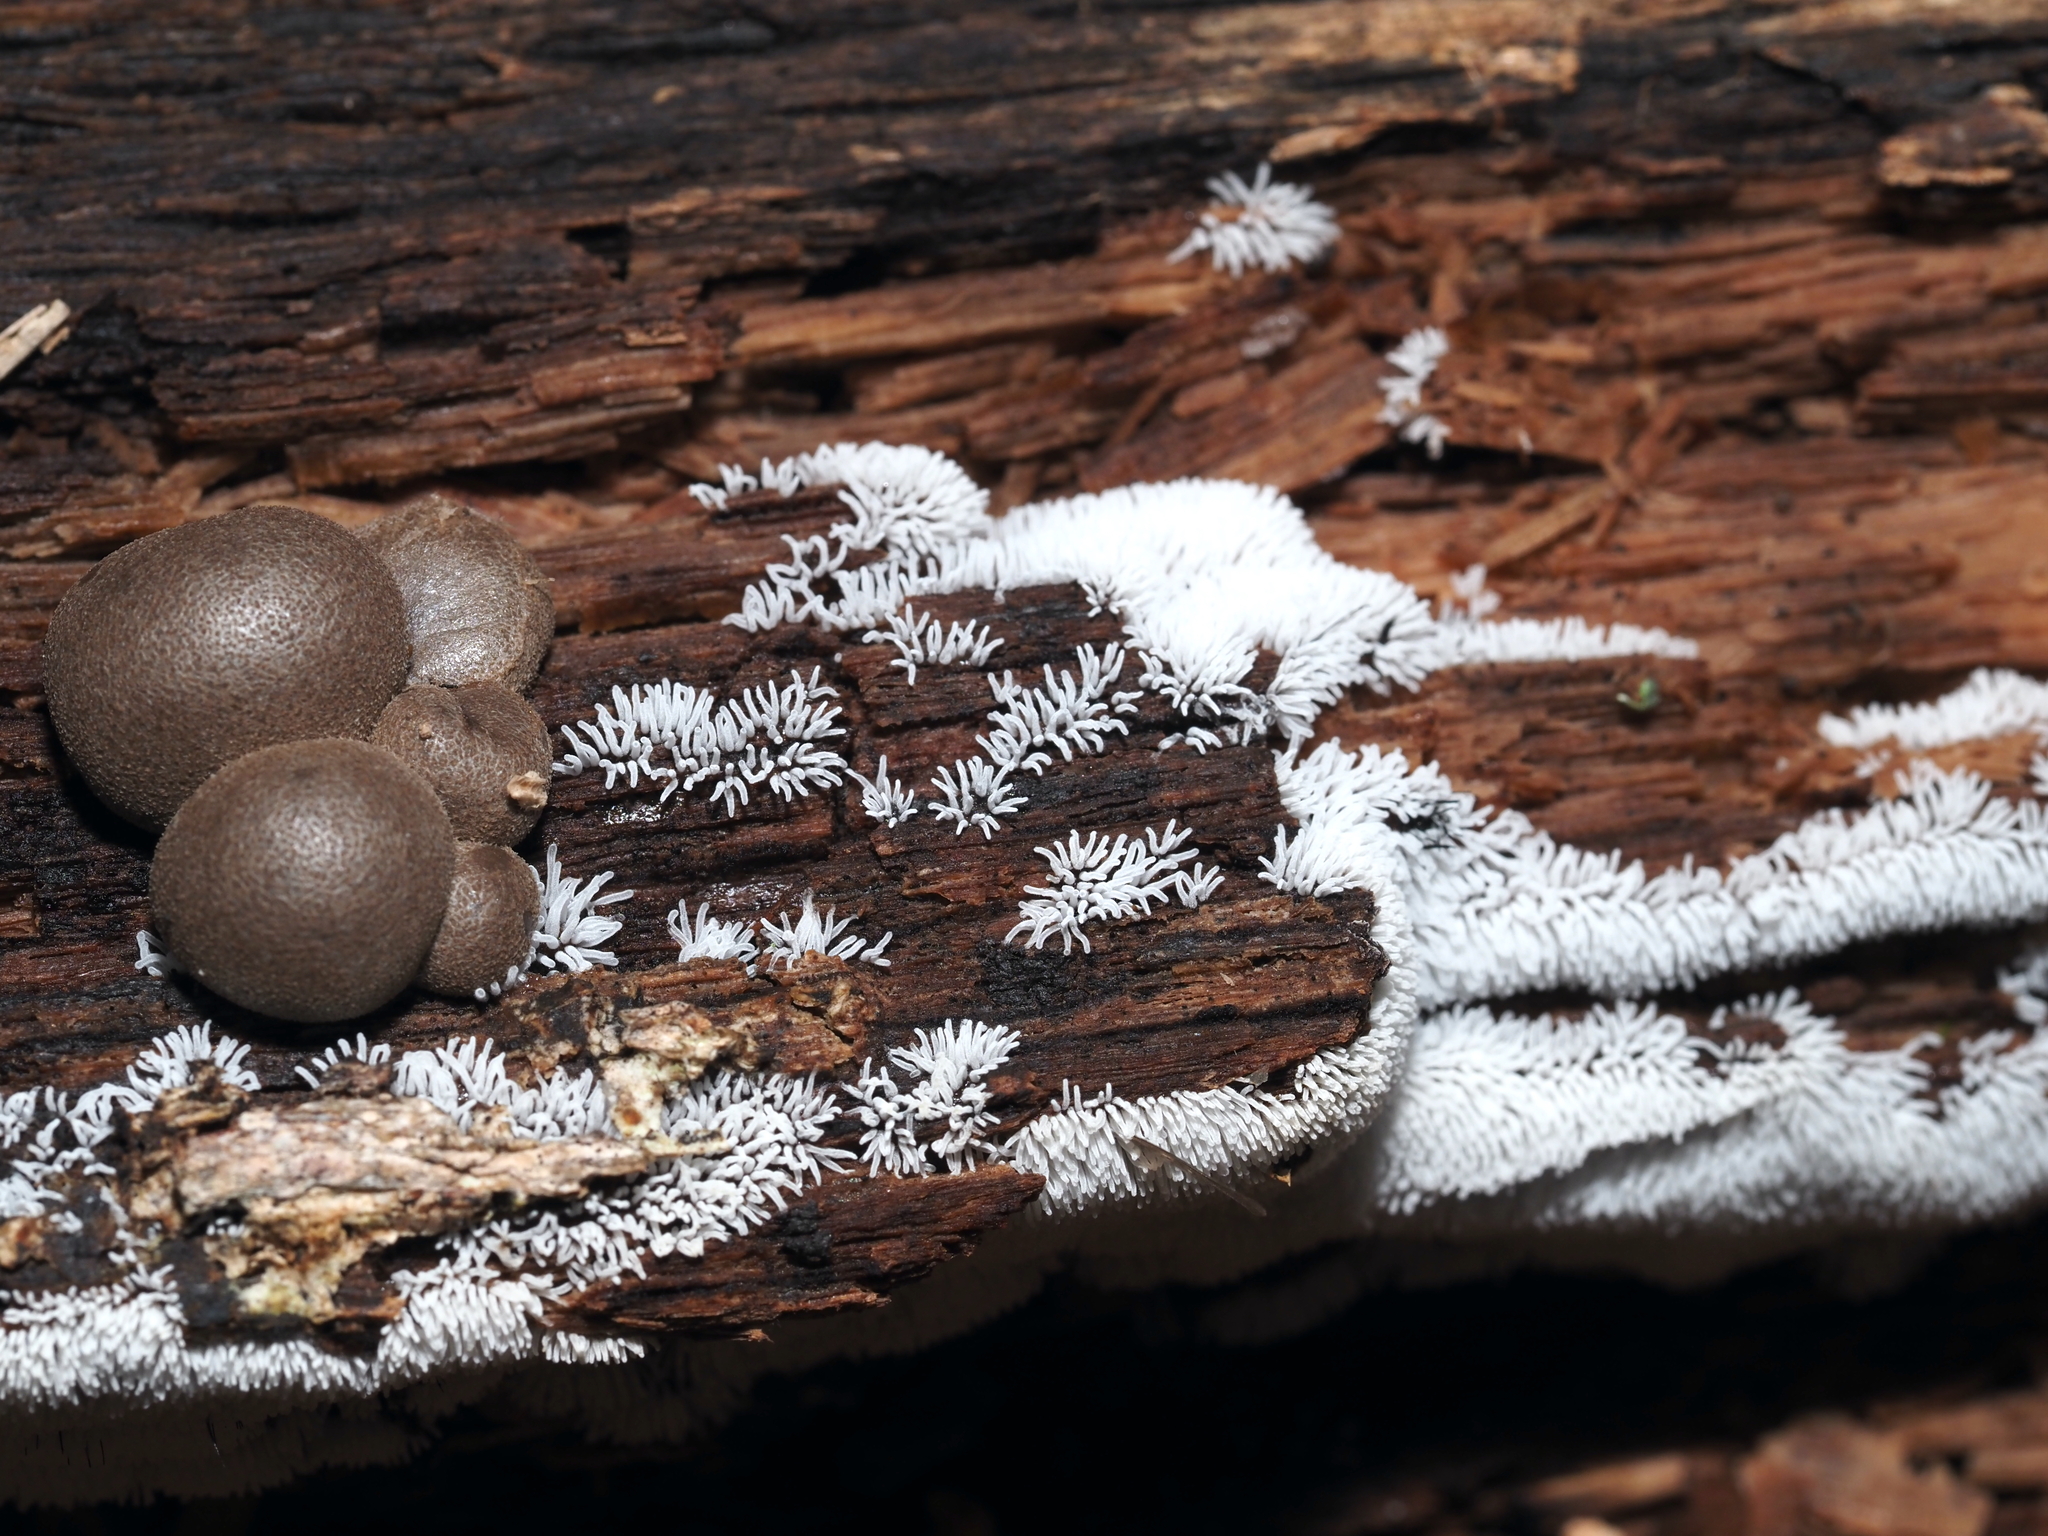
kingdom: Protozoa
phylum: Mycetozoa
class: Myxomycetes
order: Cribrariales
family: Tubiferaceae
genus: Lycogala
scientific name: Lycogala epidendrum
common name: Wolf's milk
